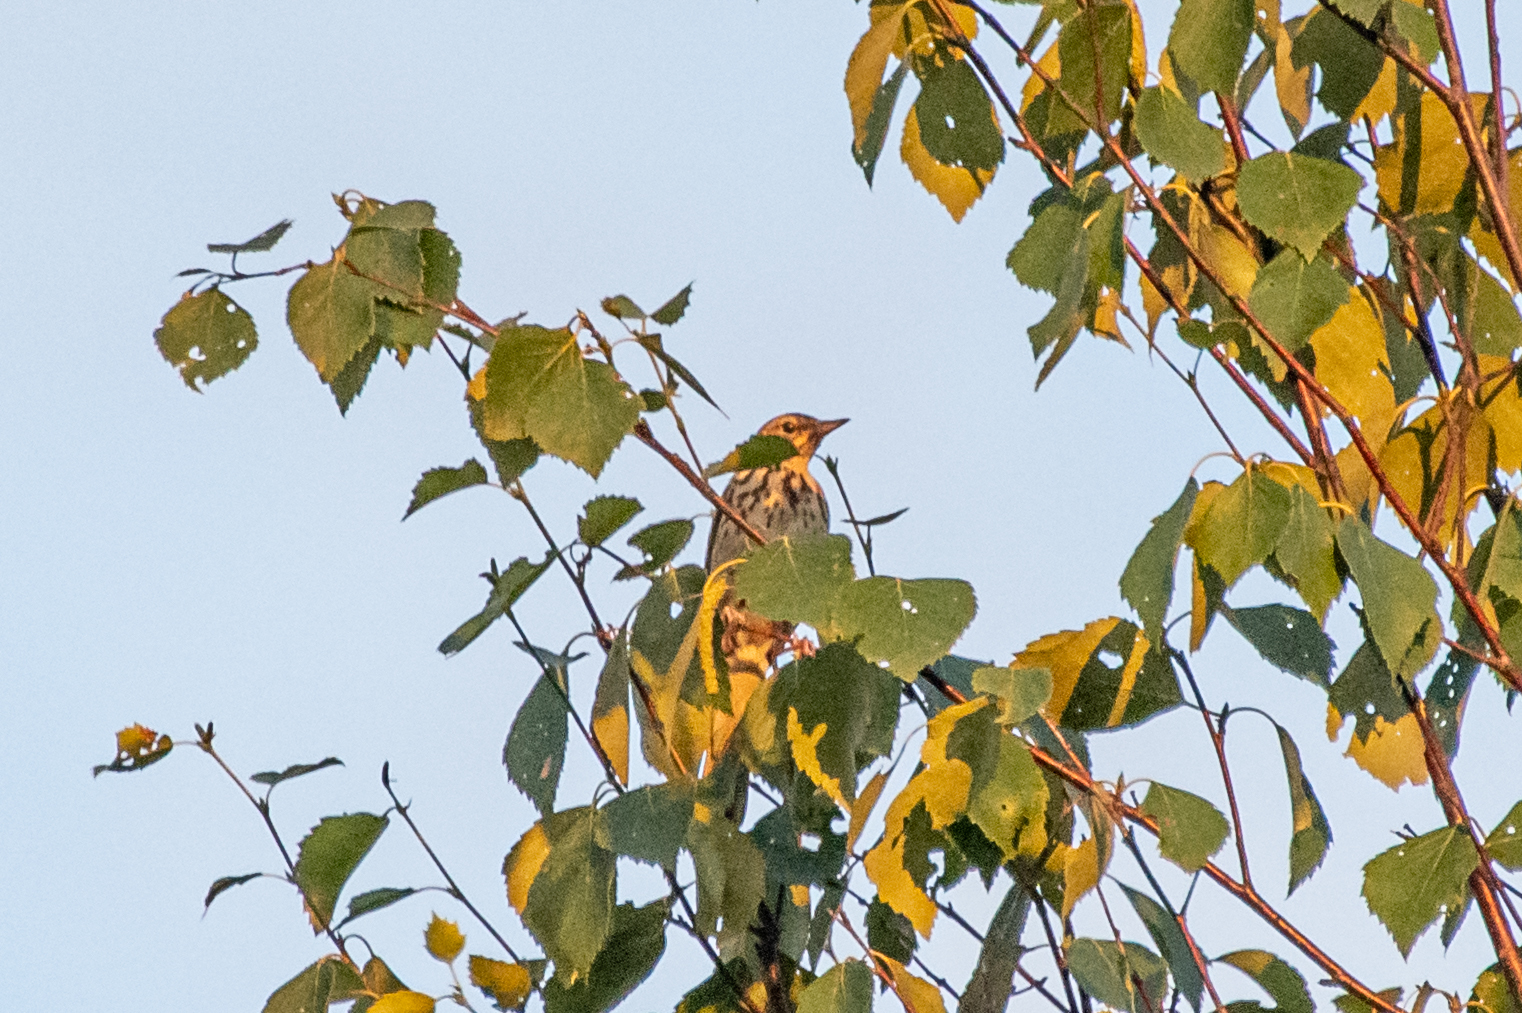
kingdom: Animalia
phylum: Chordata
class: Aves
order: Passeriformes
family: Motacillidae
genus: Anthus
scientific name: Anthus trivialis
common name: Tree pipit
